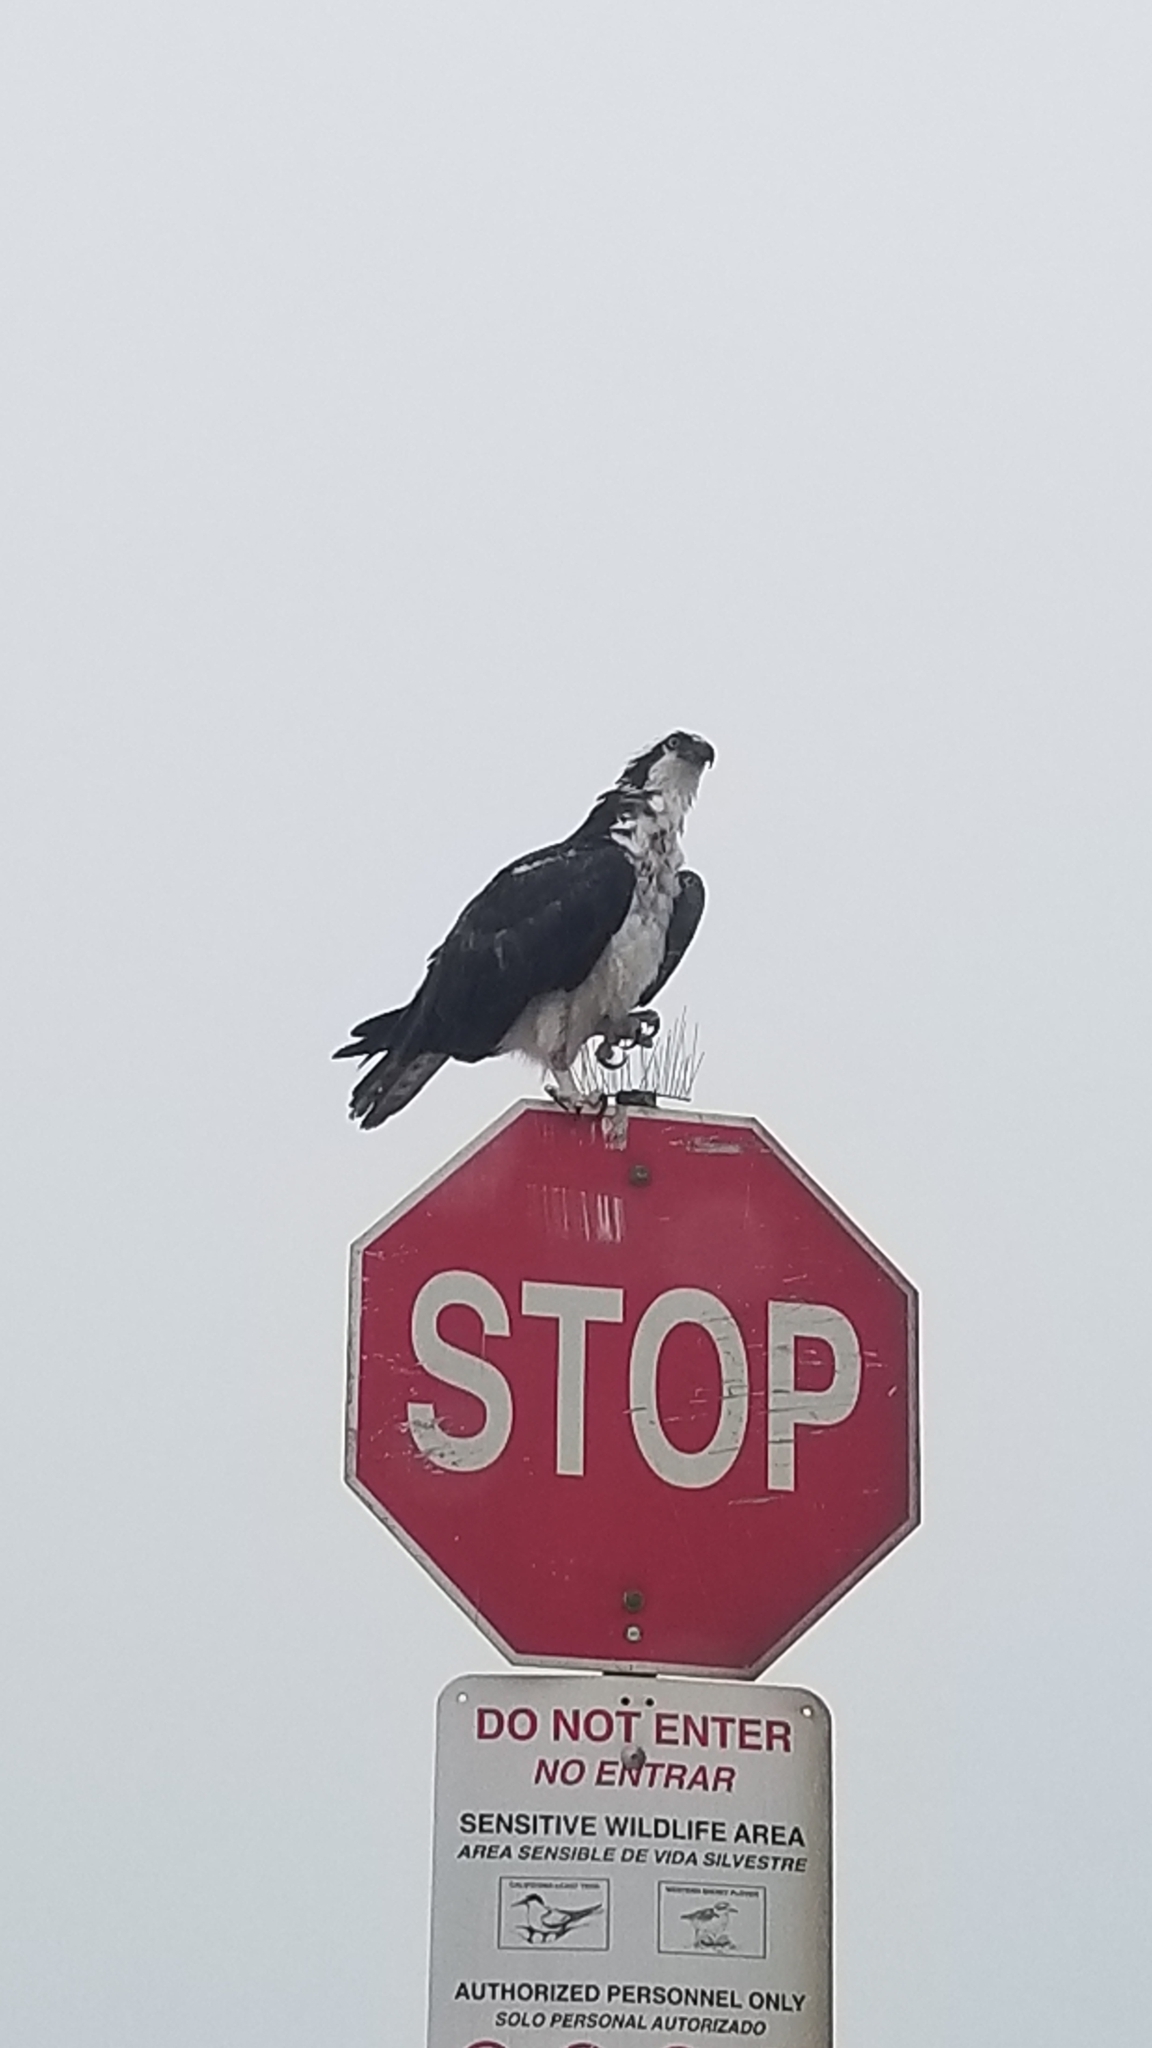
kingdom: Animalia
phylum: Chordata
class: Aves
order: Accipitriformes
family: Pandionidae
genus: Pandion
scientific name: Pandion haliaetus
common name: Osprey
